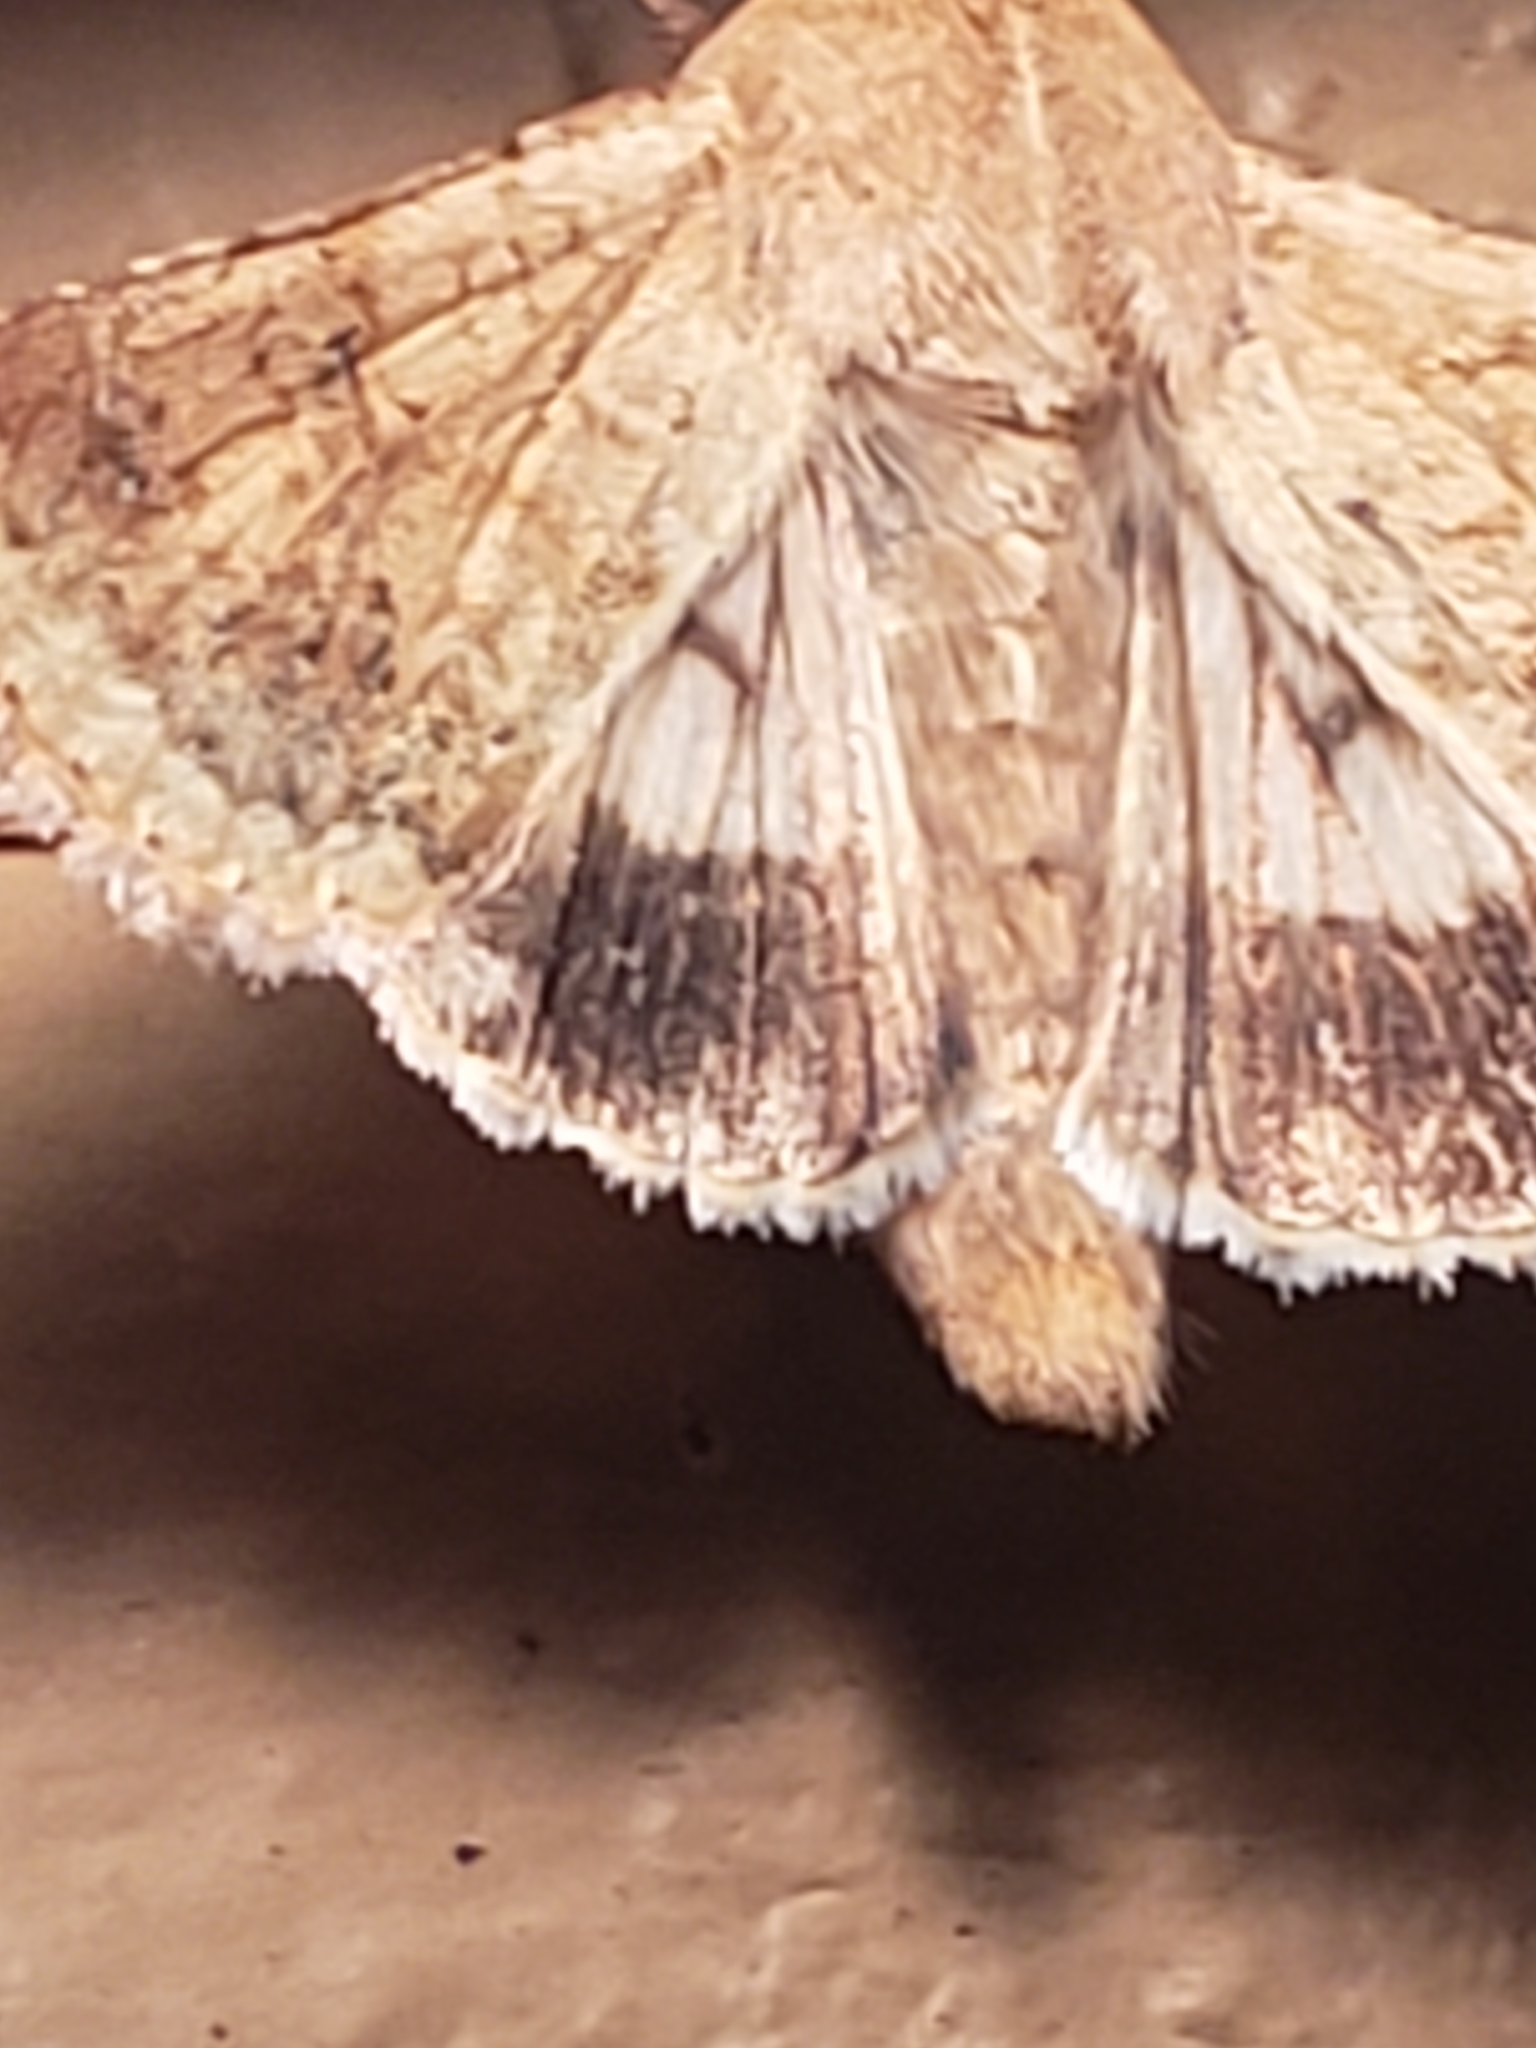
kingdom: Animalia
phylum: Arthropoda
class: Insecta
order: Lepidoptera
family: Noctuidae
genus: Helicoverpa
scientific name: Helicoverpa zea
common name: Bollworm
